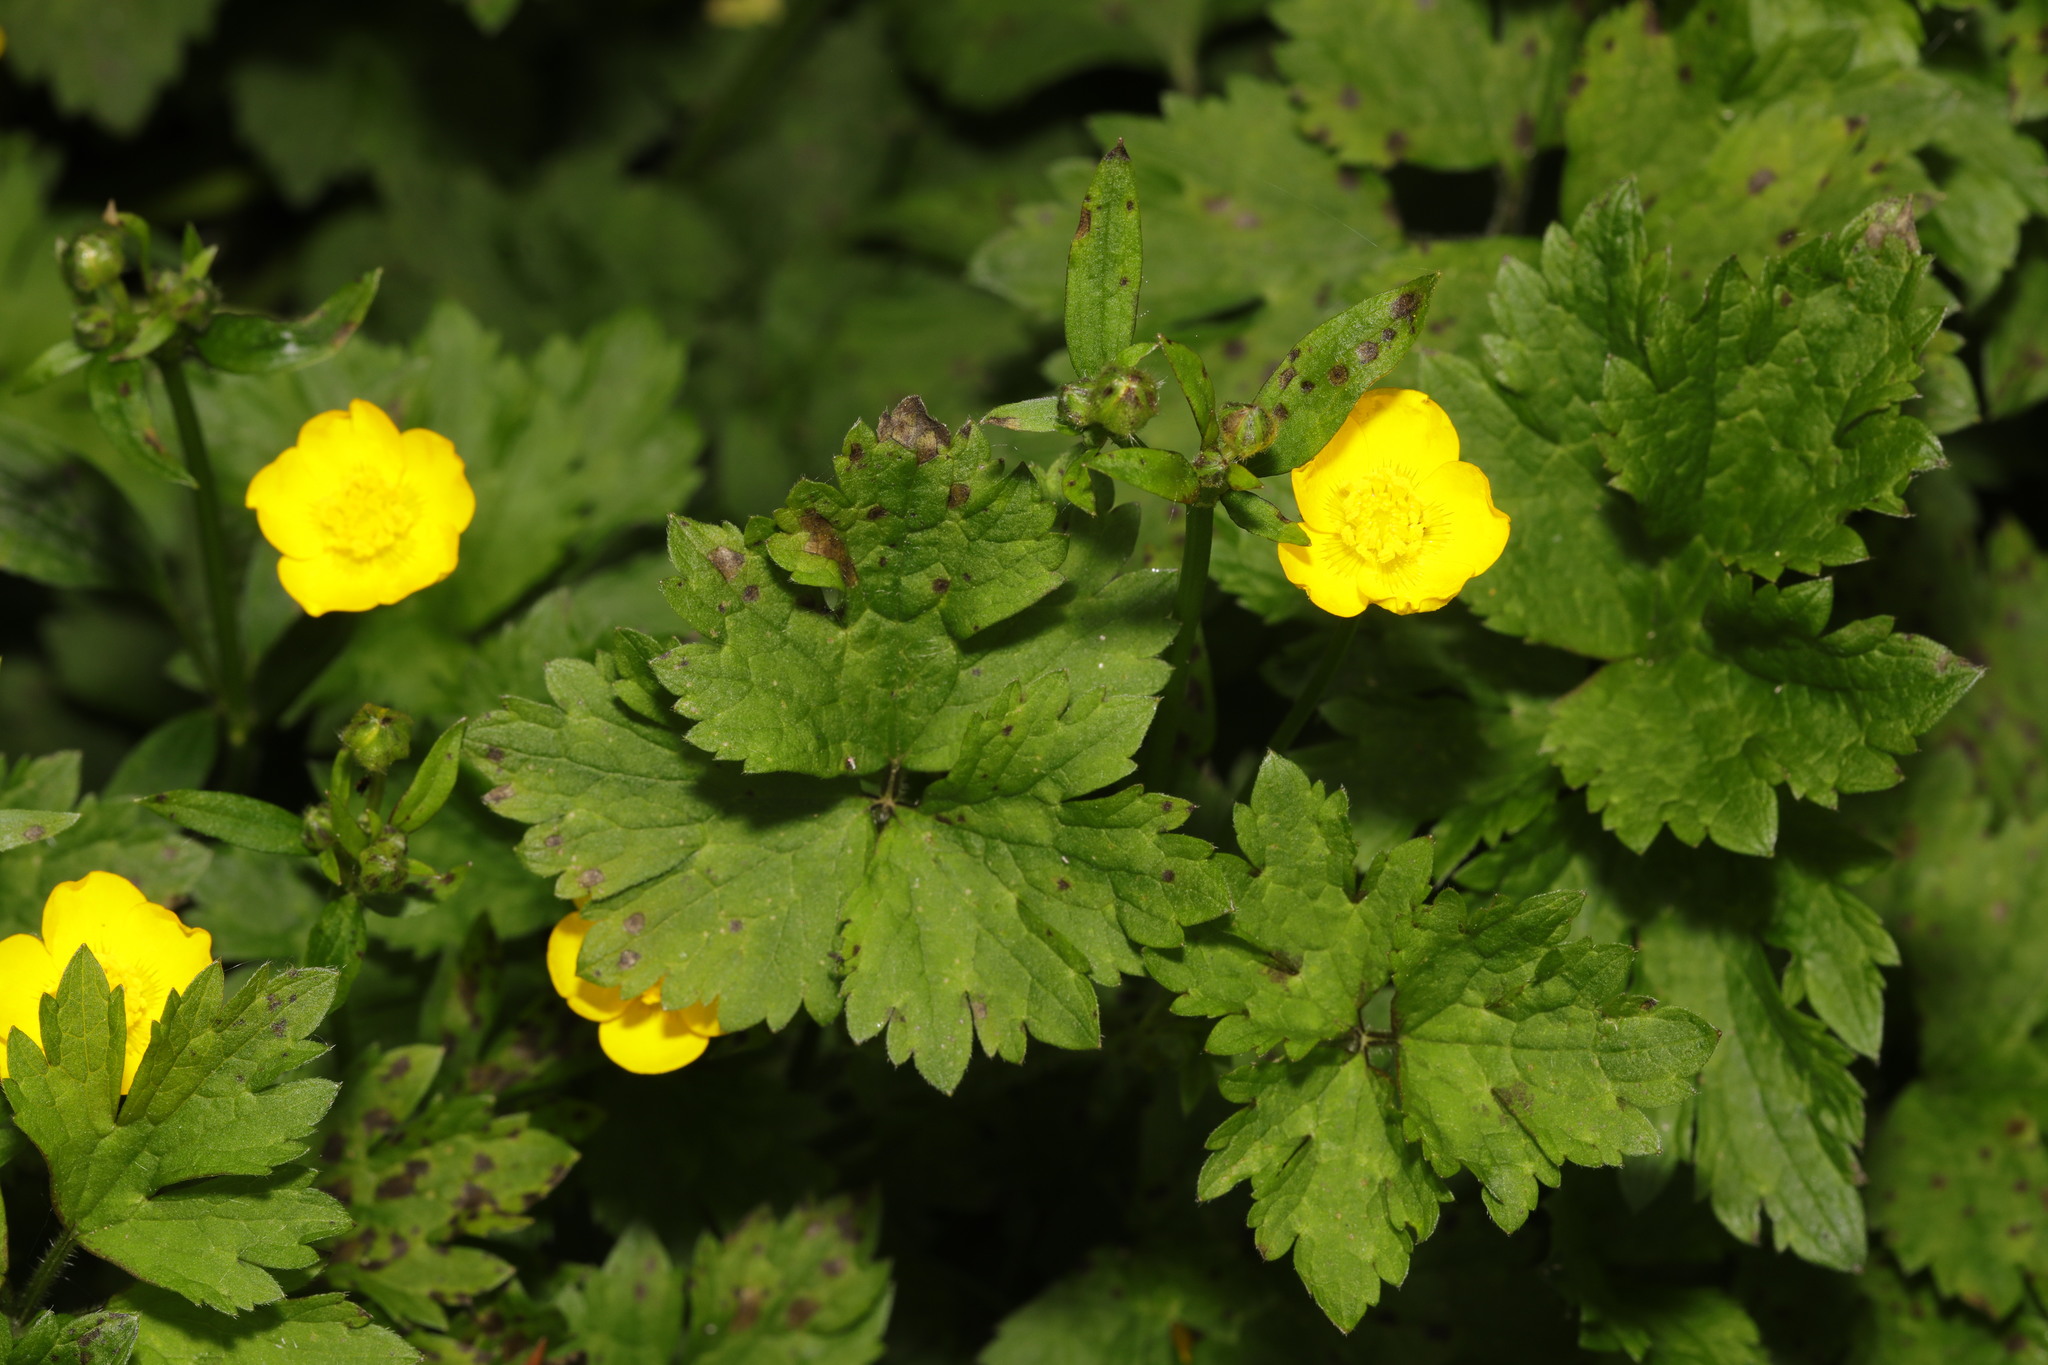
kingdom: Plantae
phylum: Tracheophyta
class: Magnoliopsida
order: Ranunculales
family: Ranunculaceae
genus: Ranunculus
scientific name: Ranunculus repens
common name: Creeping buttercup
